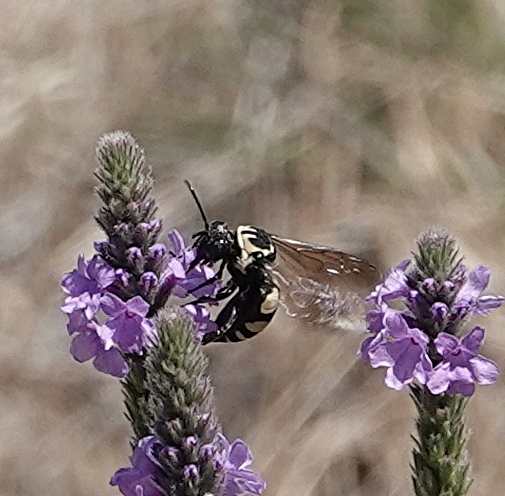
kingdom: Animalia
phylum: Arthropoda
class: Insecta
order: Hymenoptera
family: Apidae
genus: Triepeolus
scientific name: Triepeolus remigatus
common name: Squash longhorn-cuckoo
